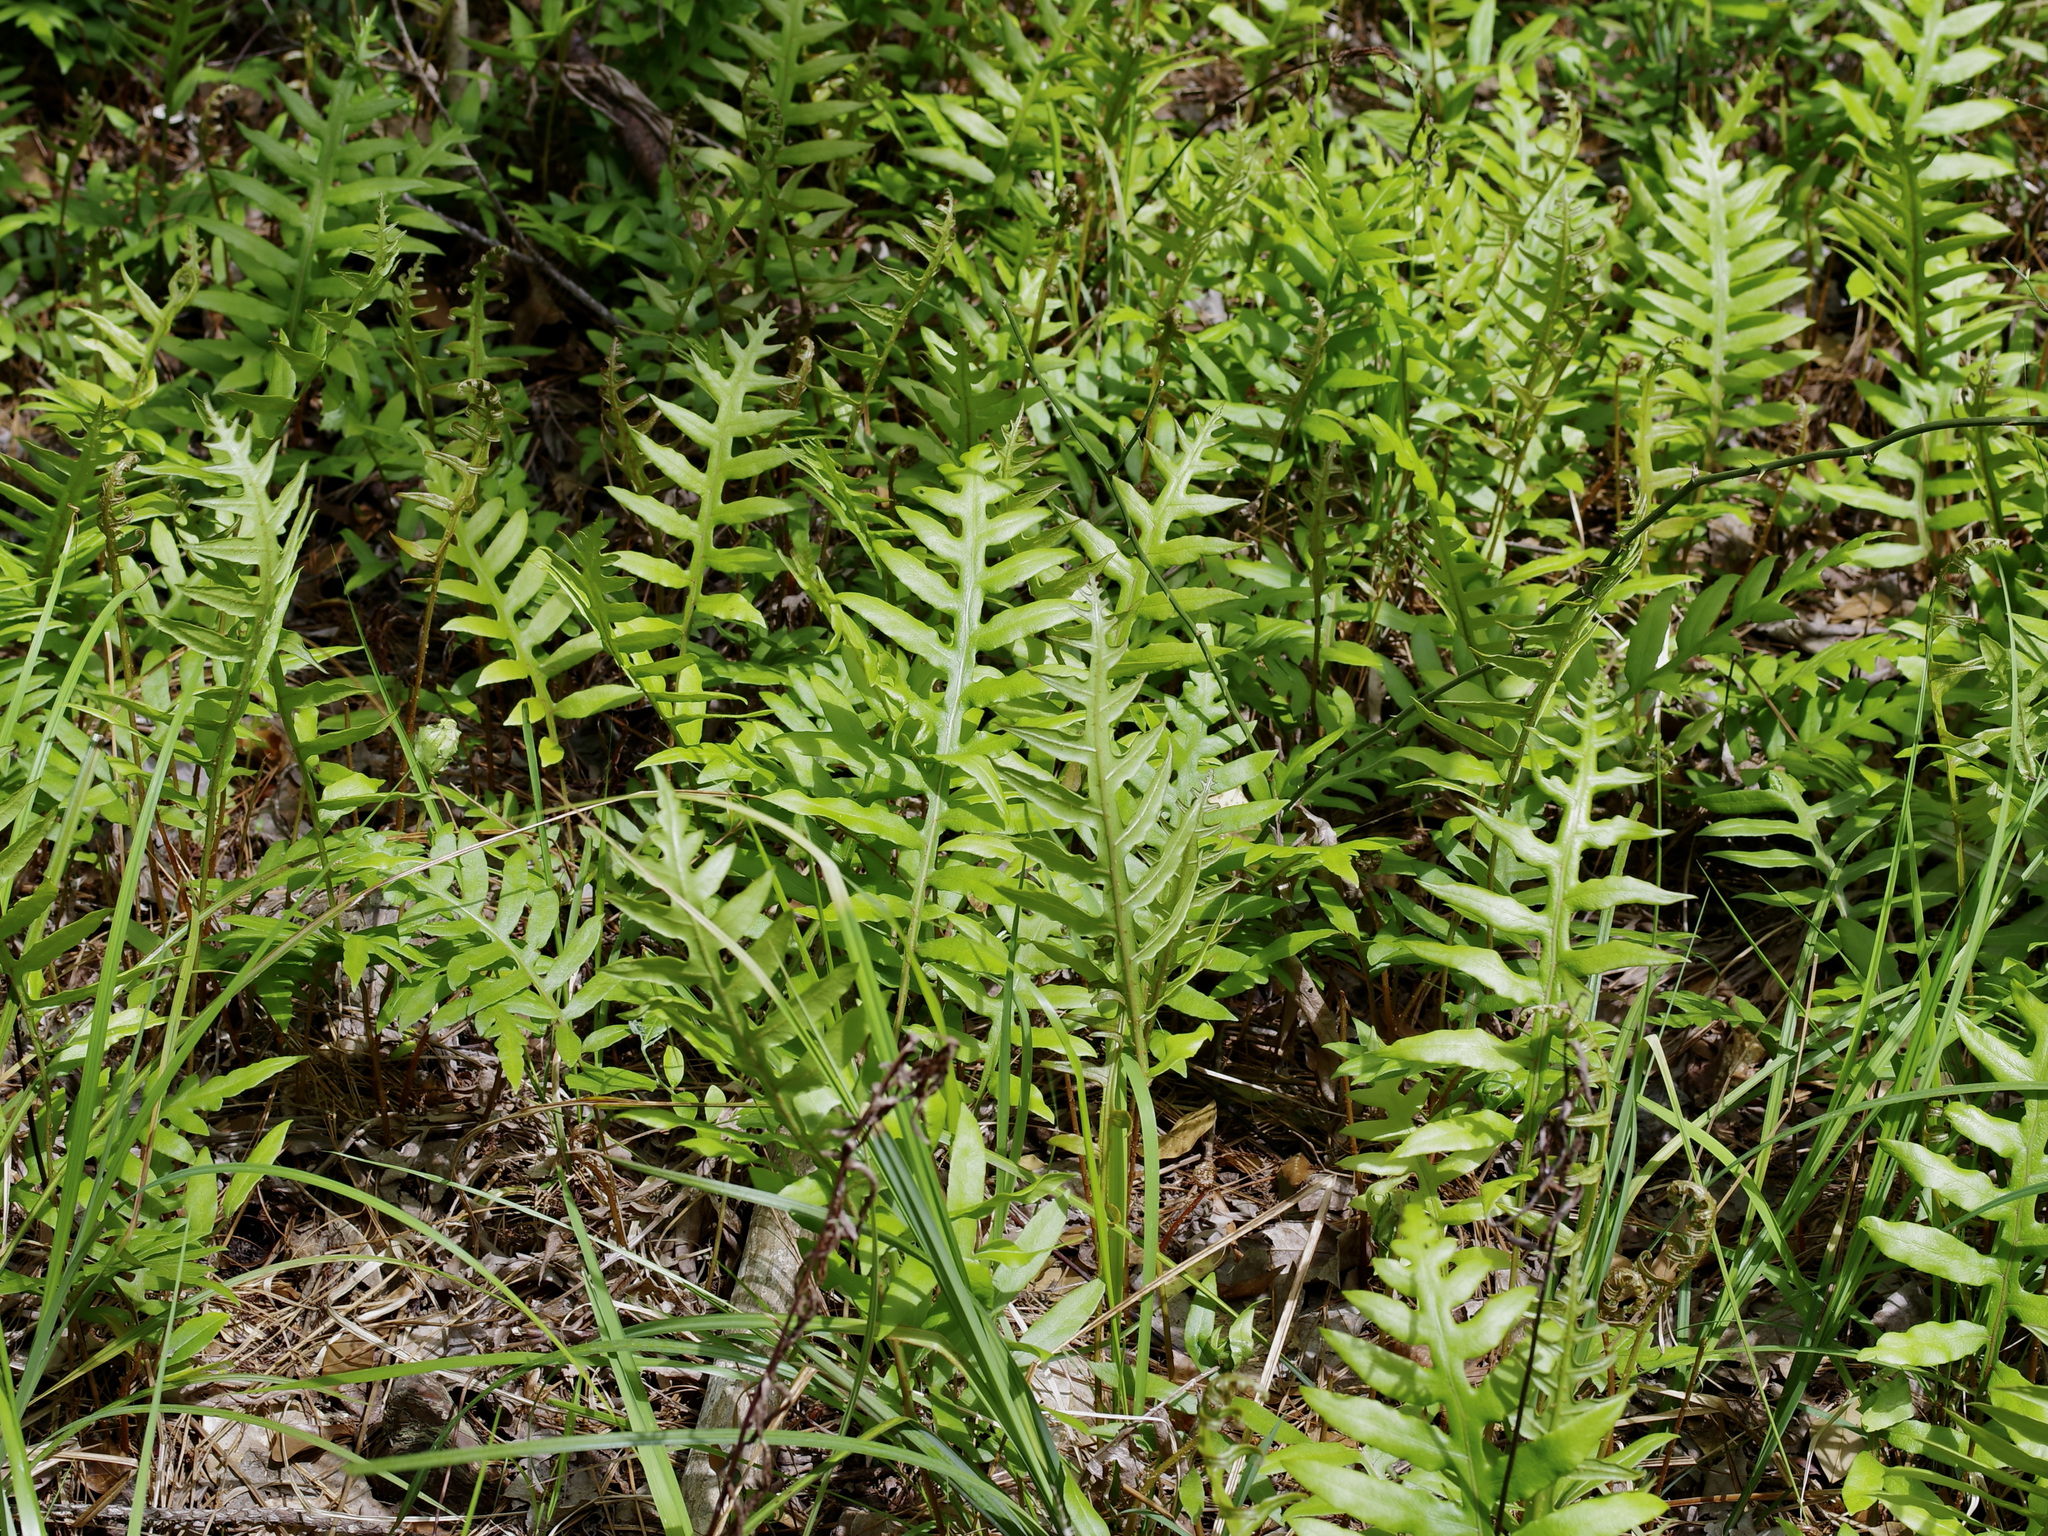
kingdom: Plantae
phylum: Tracheophyta
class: Polypodiopsida
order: Polypodiales
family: Blechnaceae
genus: Lorinseria
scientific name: Lorinseria areolata
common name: Dwarf chain fern
